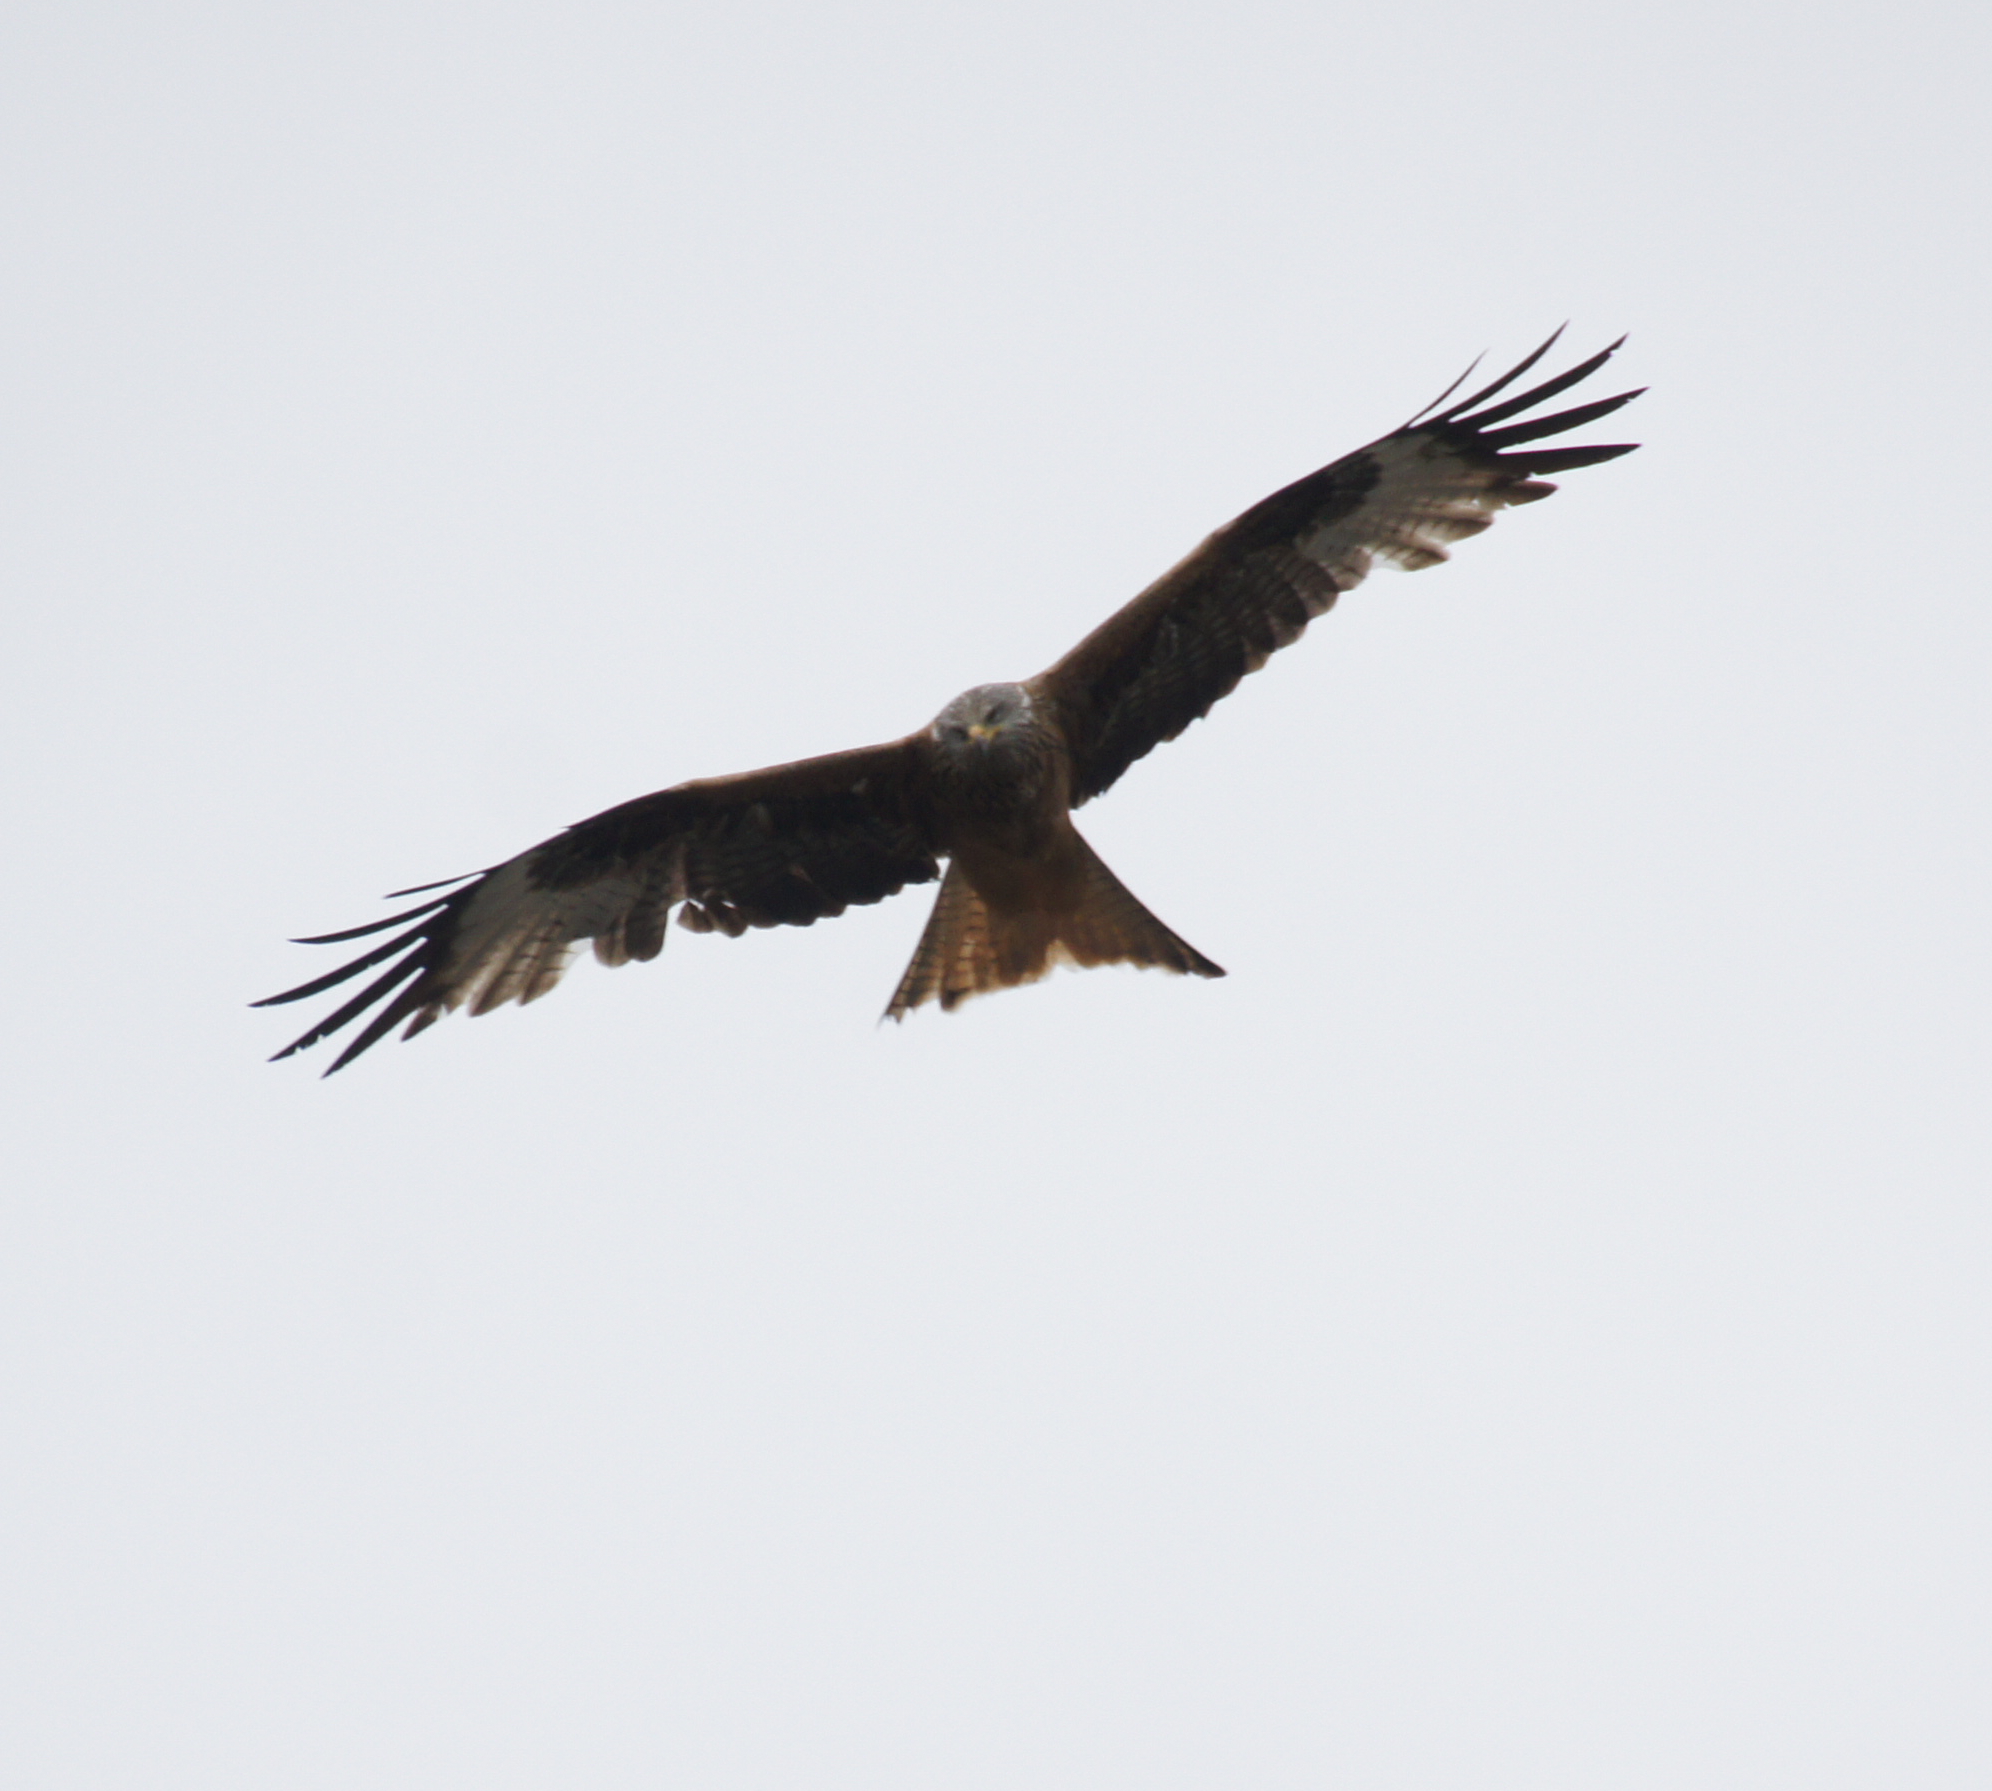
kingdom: Animalia
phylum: Chordata
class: Aves
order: Accipitriformes
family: Accipitridae
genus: Milvus
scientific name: Milvus milvus
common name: Red kite
